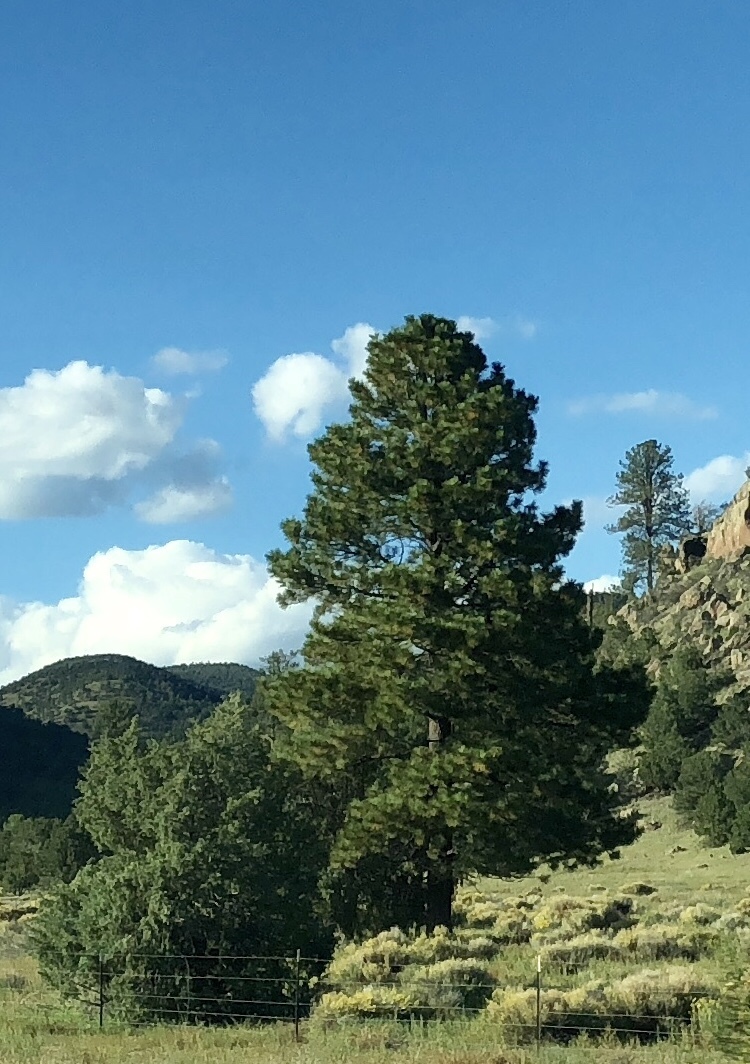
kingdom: Plantae
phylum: Tracheophyta
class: Pinopsida
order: Pinales
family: Pinaceae
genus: Pinus
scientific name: Pinus ponderosa
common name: Western yellow-pine
